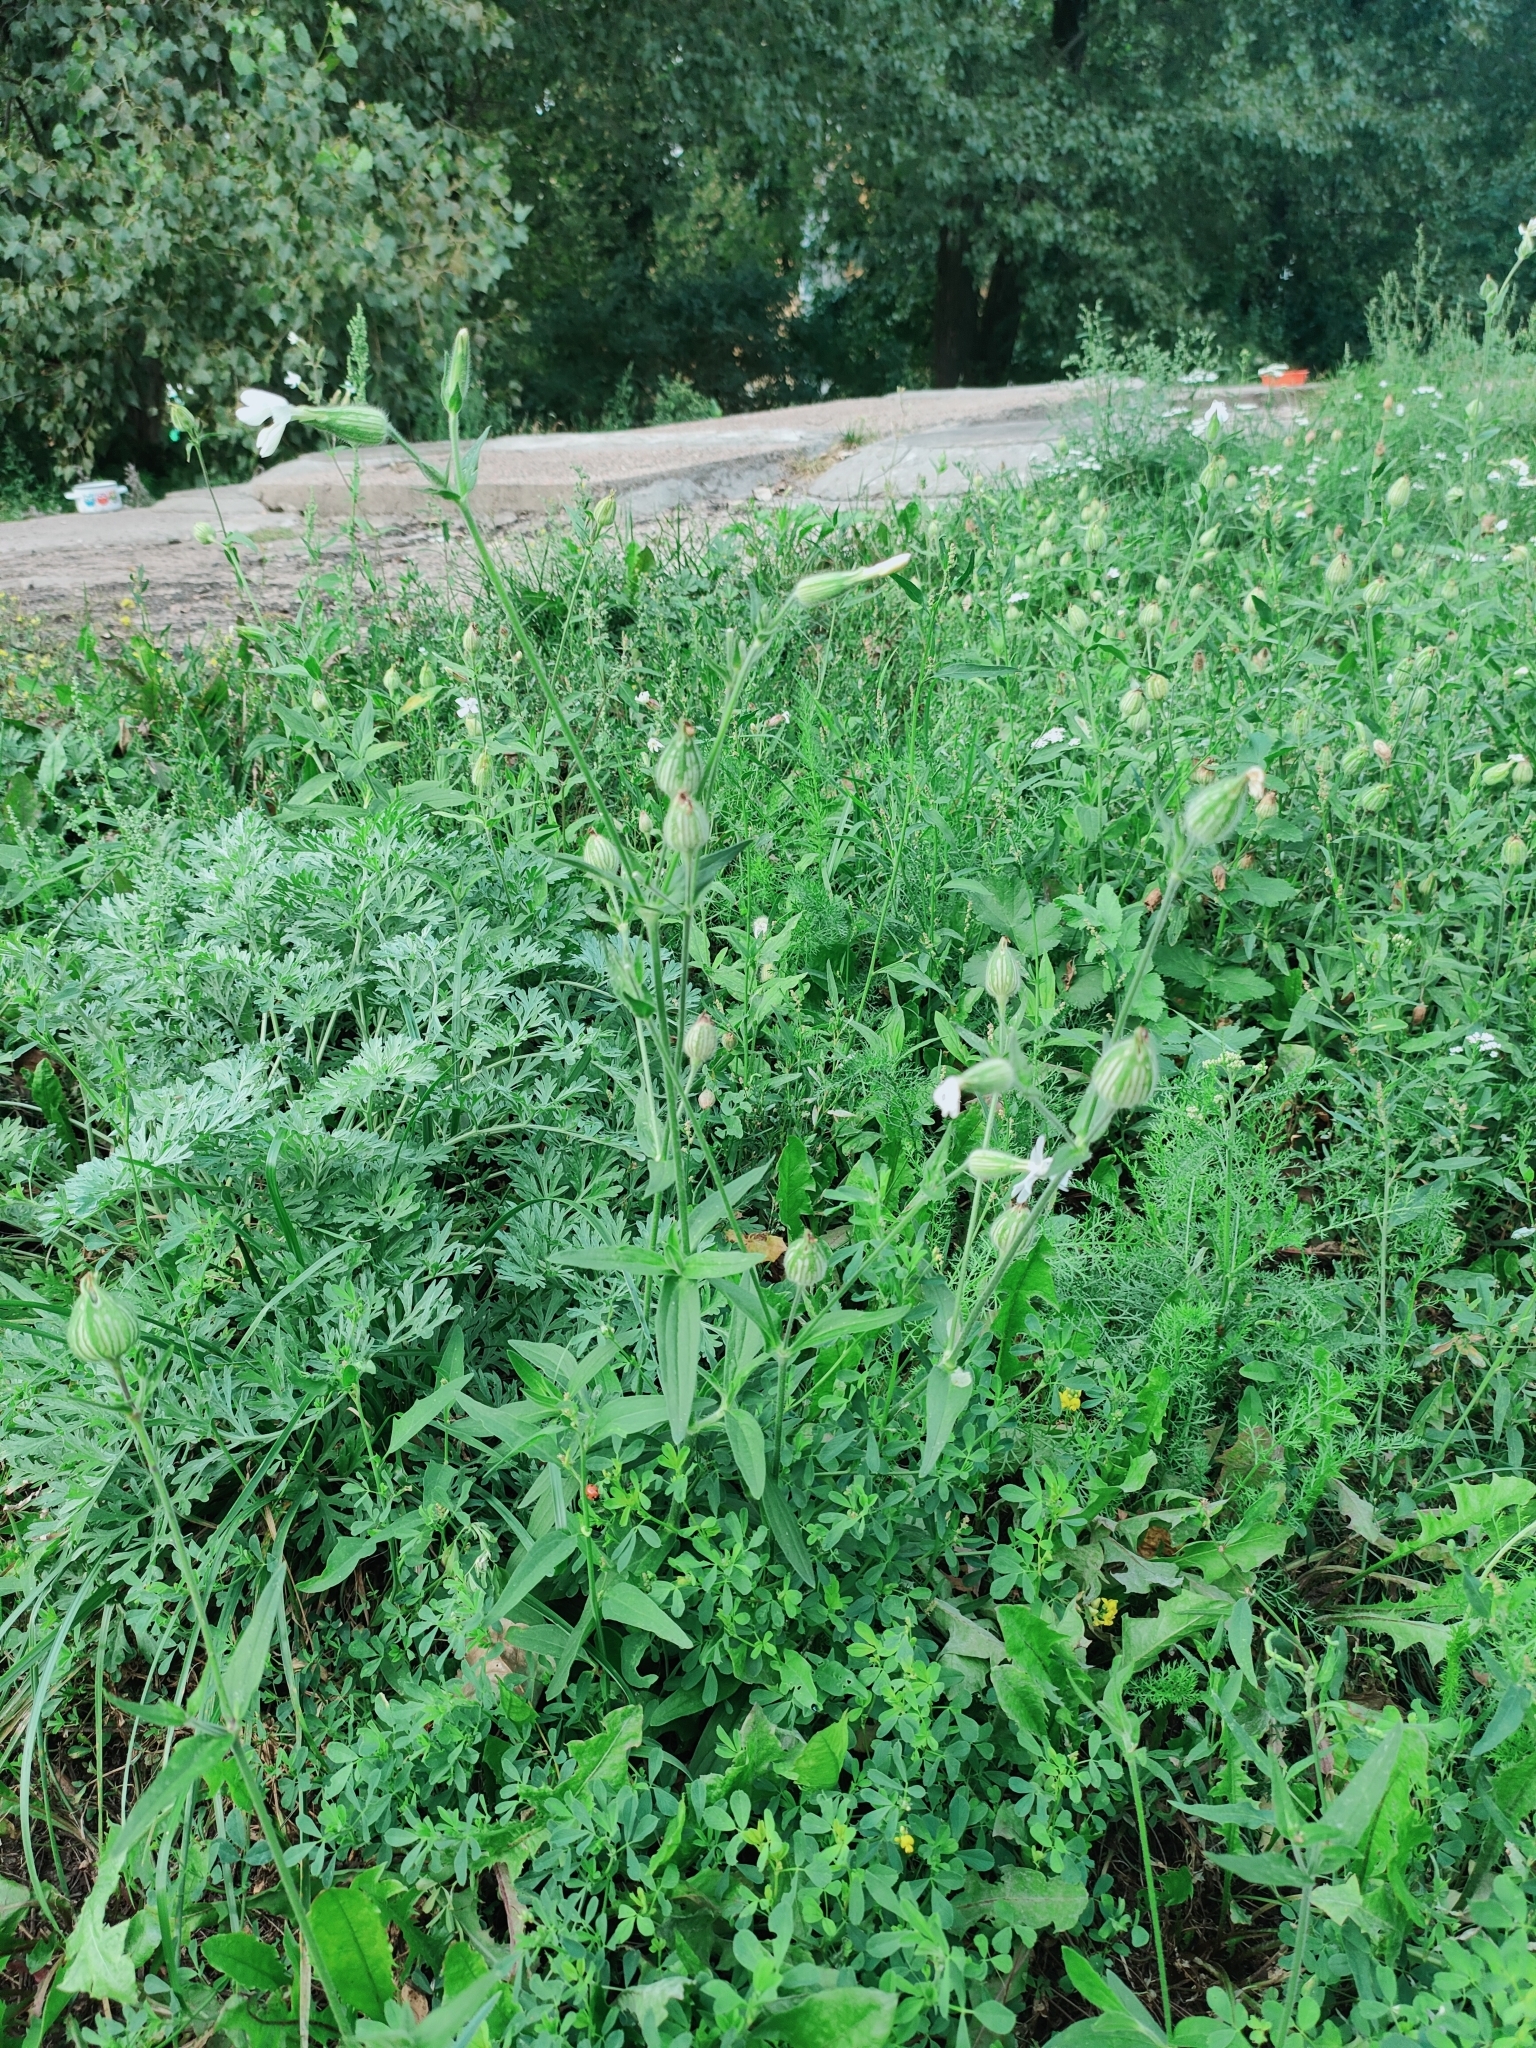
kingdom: Plantae
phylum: Tracheophyta
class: Magnoliopsida
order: Caryophyllales
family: Caryophyllaceae
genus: Silene
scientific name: Silene latifolia
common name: White campion
